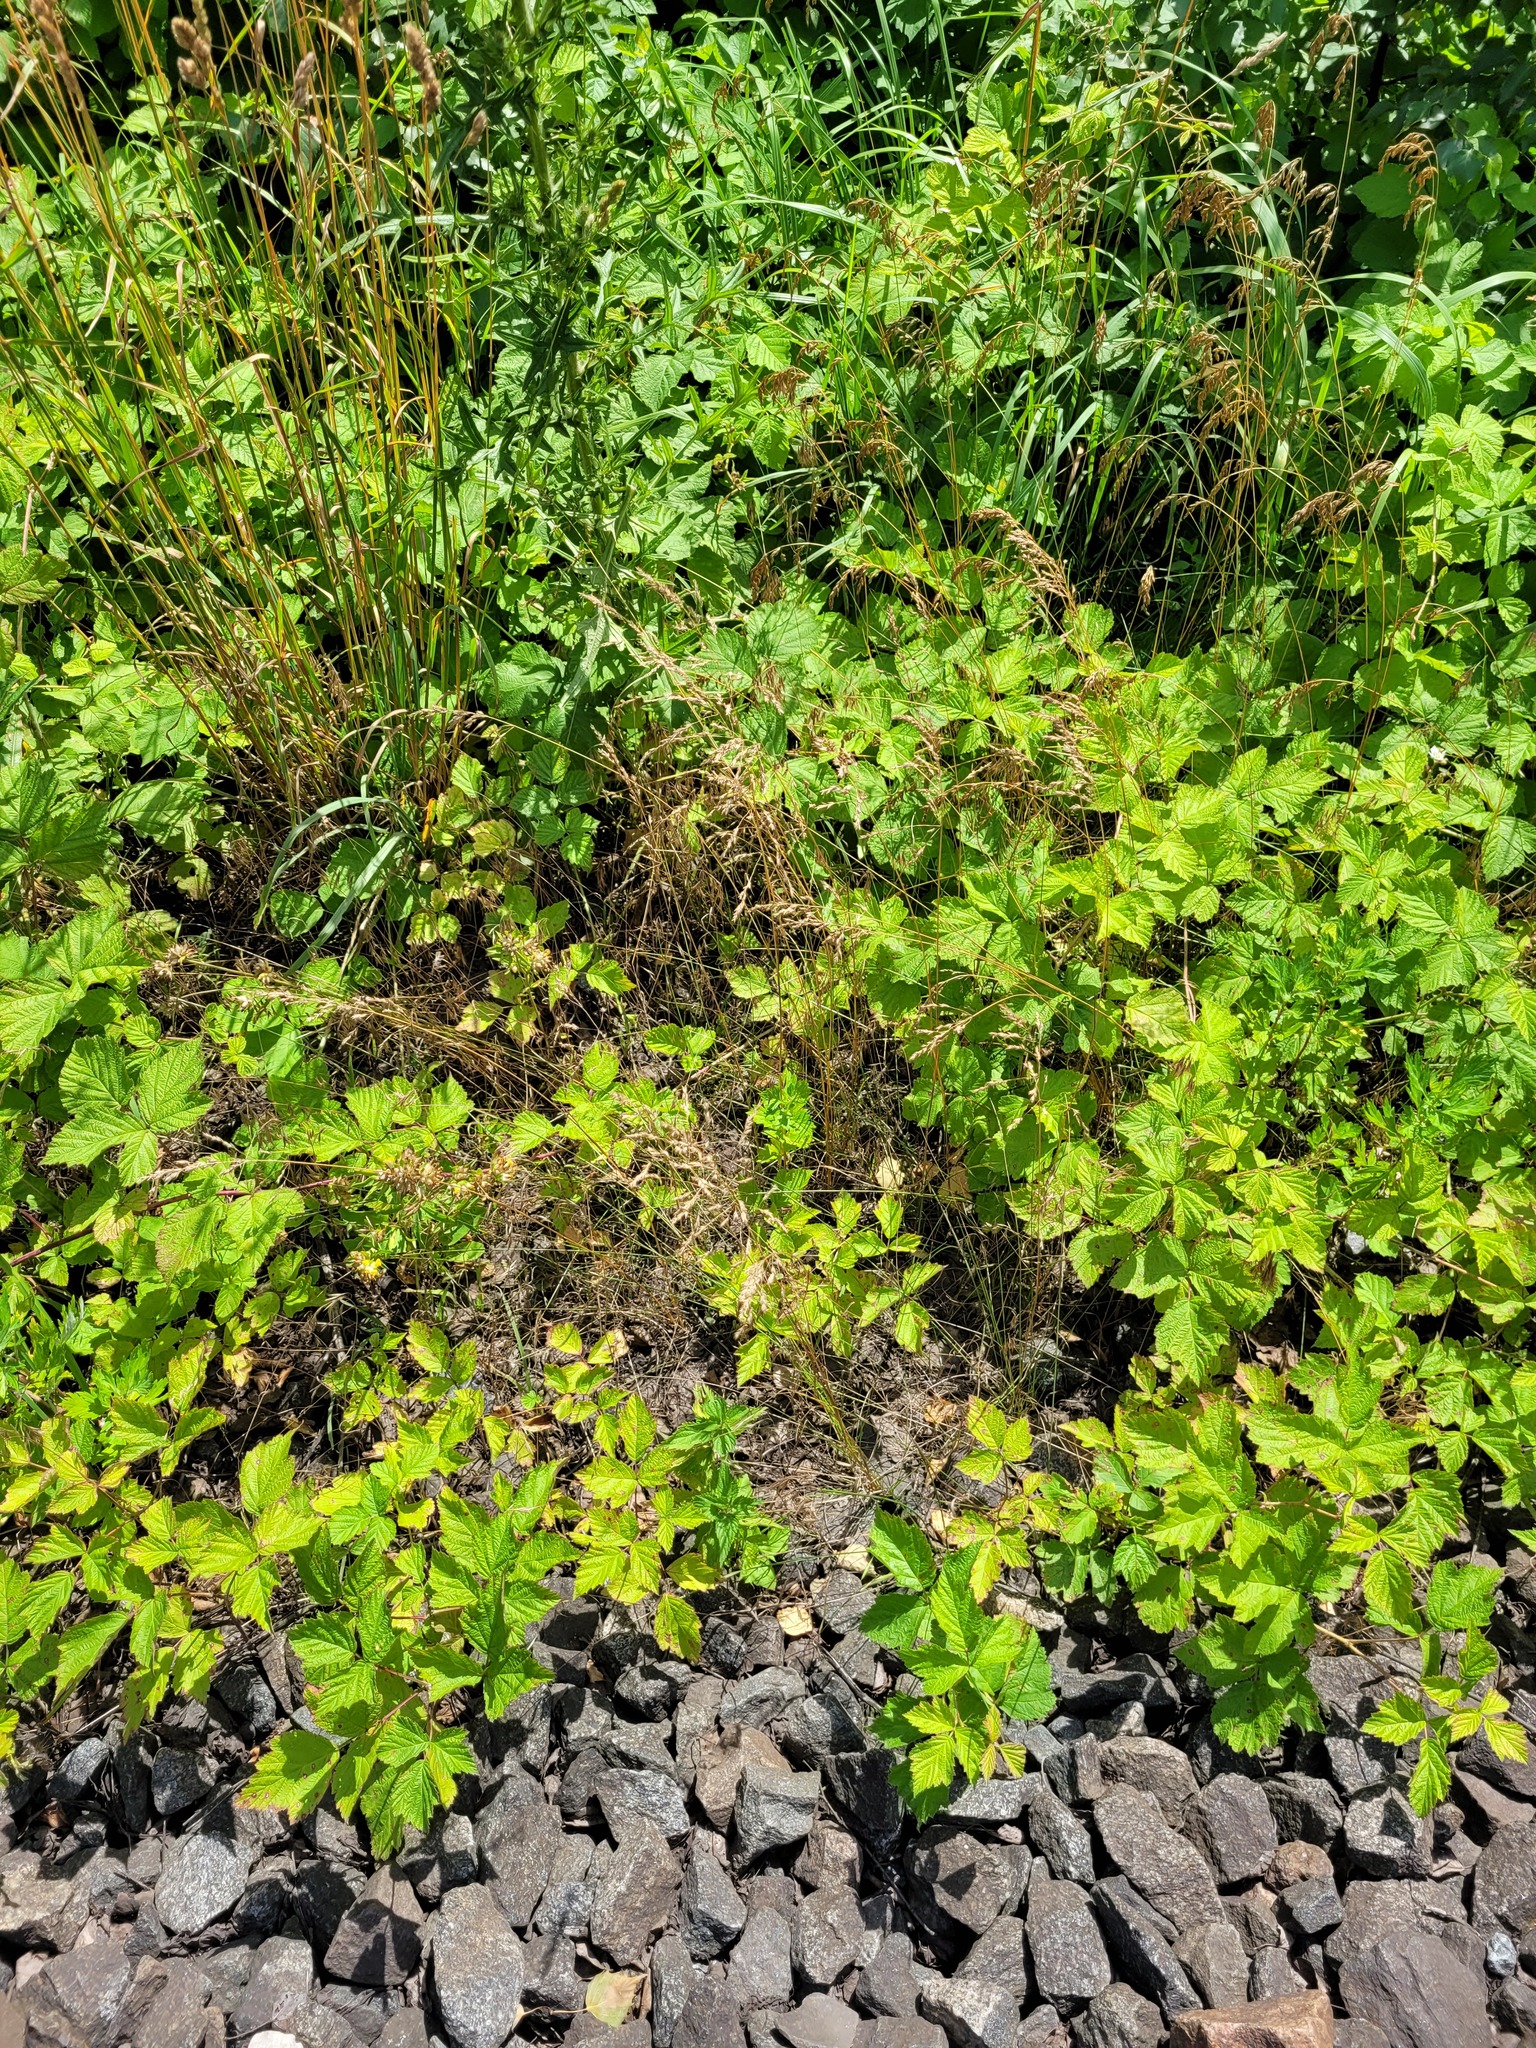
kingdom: Plantae
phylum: Tracheophyta
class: Liliopsida
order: Poales
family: Poaceae
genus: Poa
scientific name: Poa angustifolia
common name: Narrow-leaved meadow-grass
